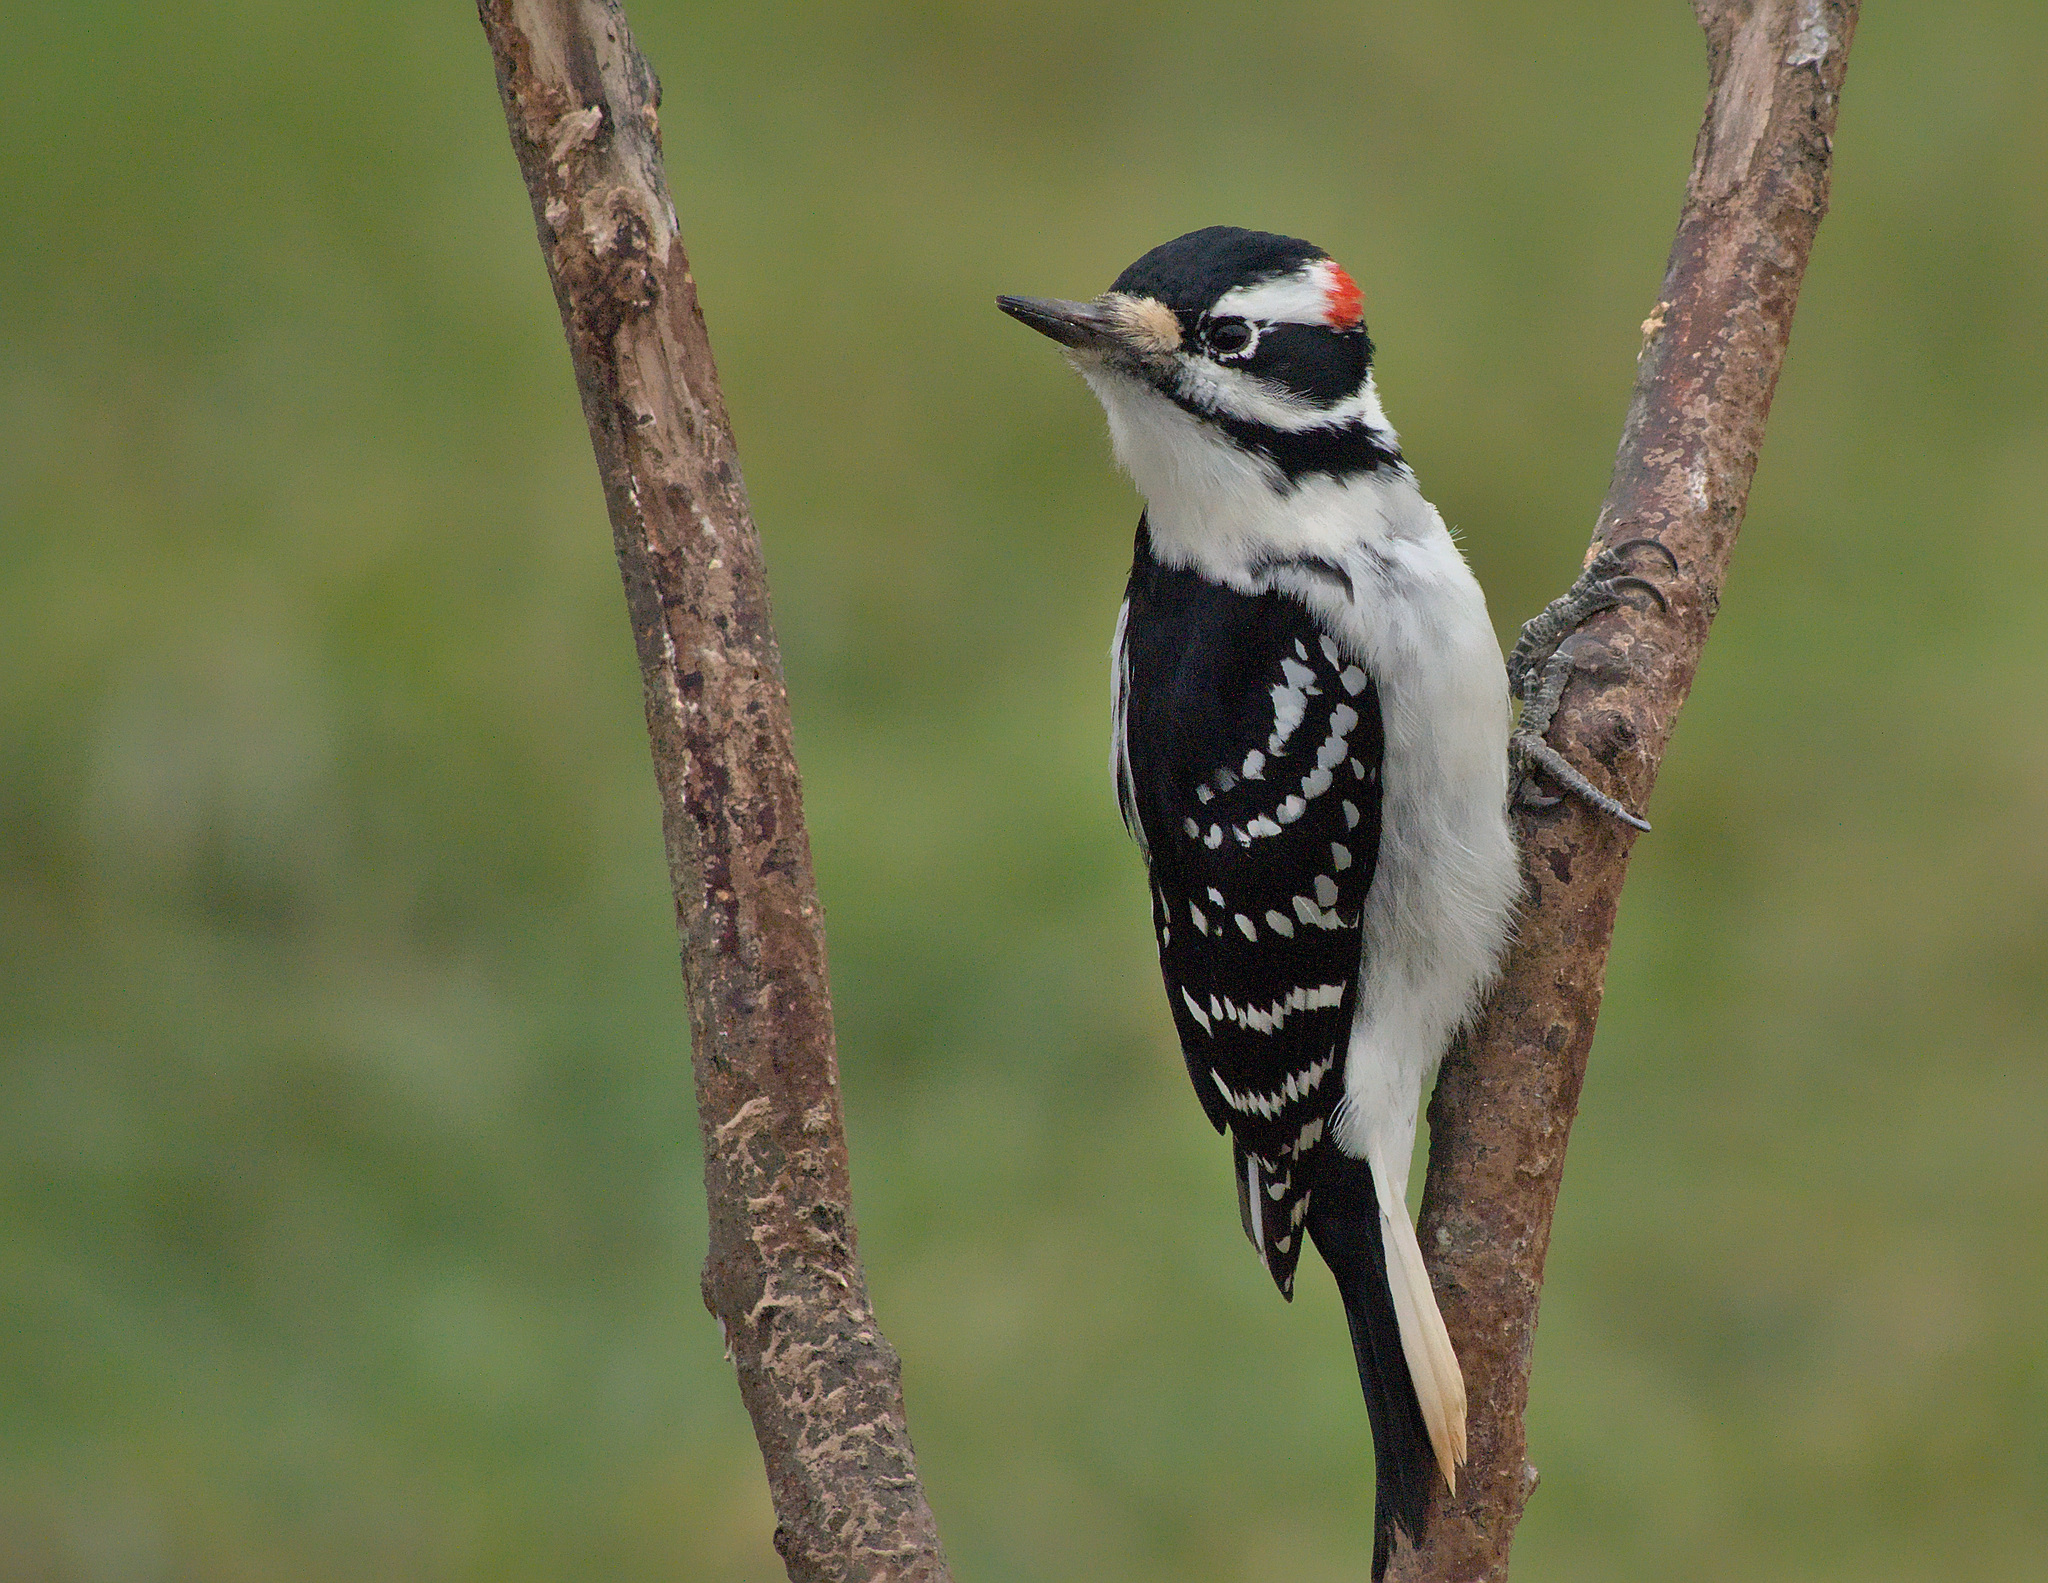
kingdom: Animalia
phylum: Chordata
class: Aves
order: Piciformes
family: Picidae
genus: Leuconotopicus
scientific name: Leuconotopicus villosus
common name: Hairy woodpecker
